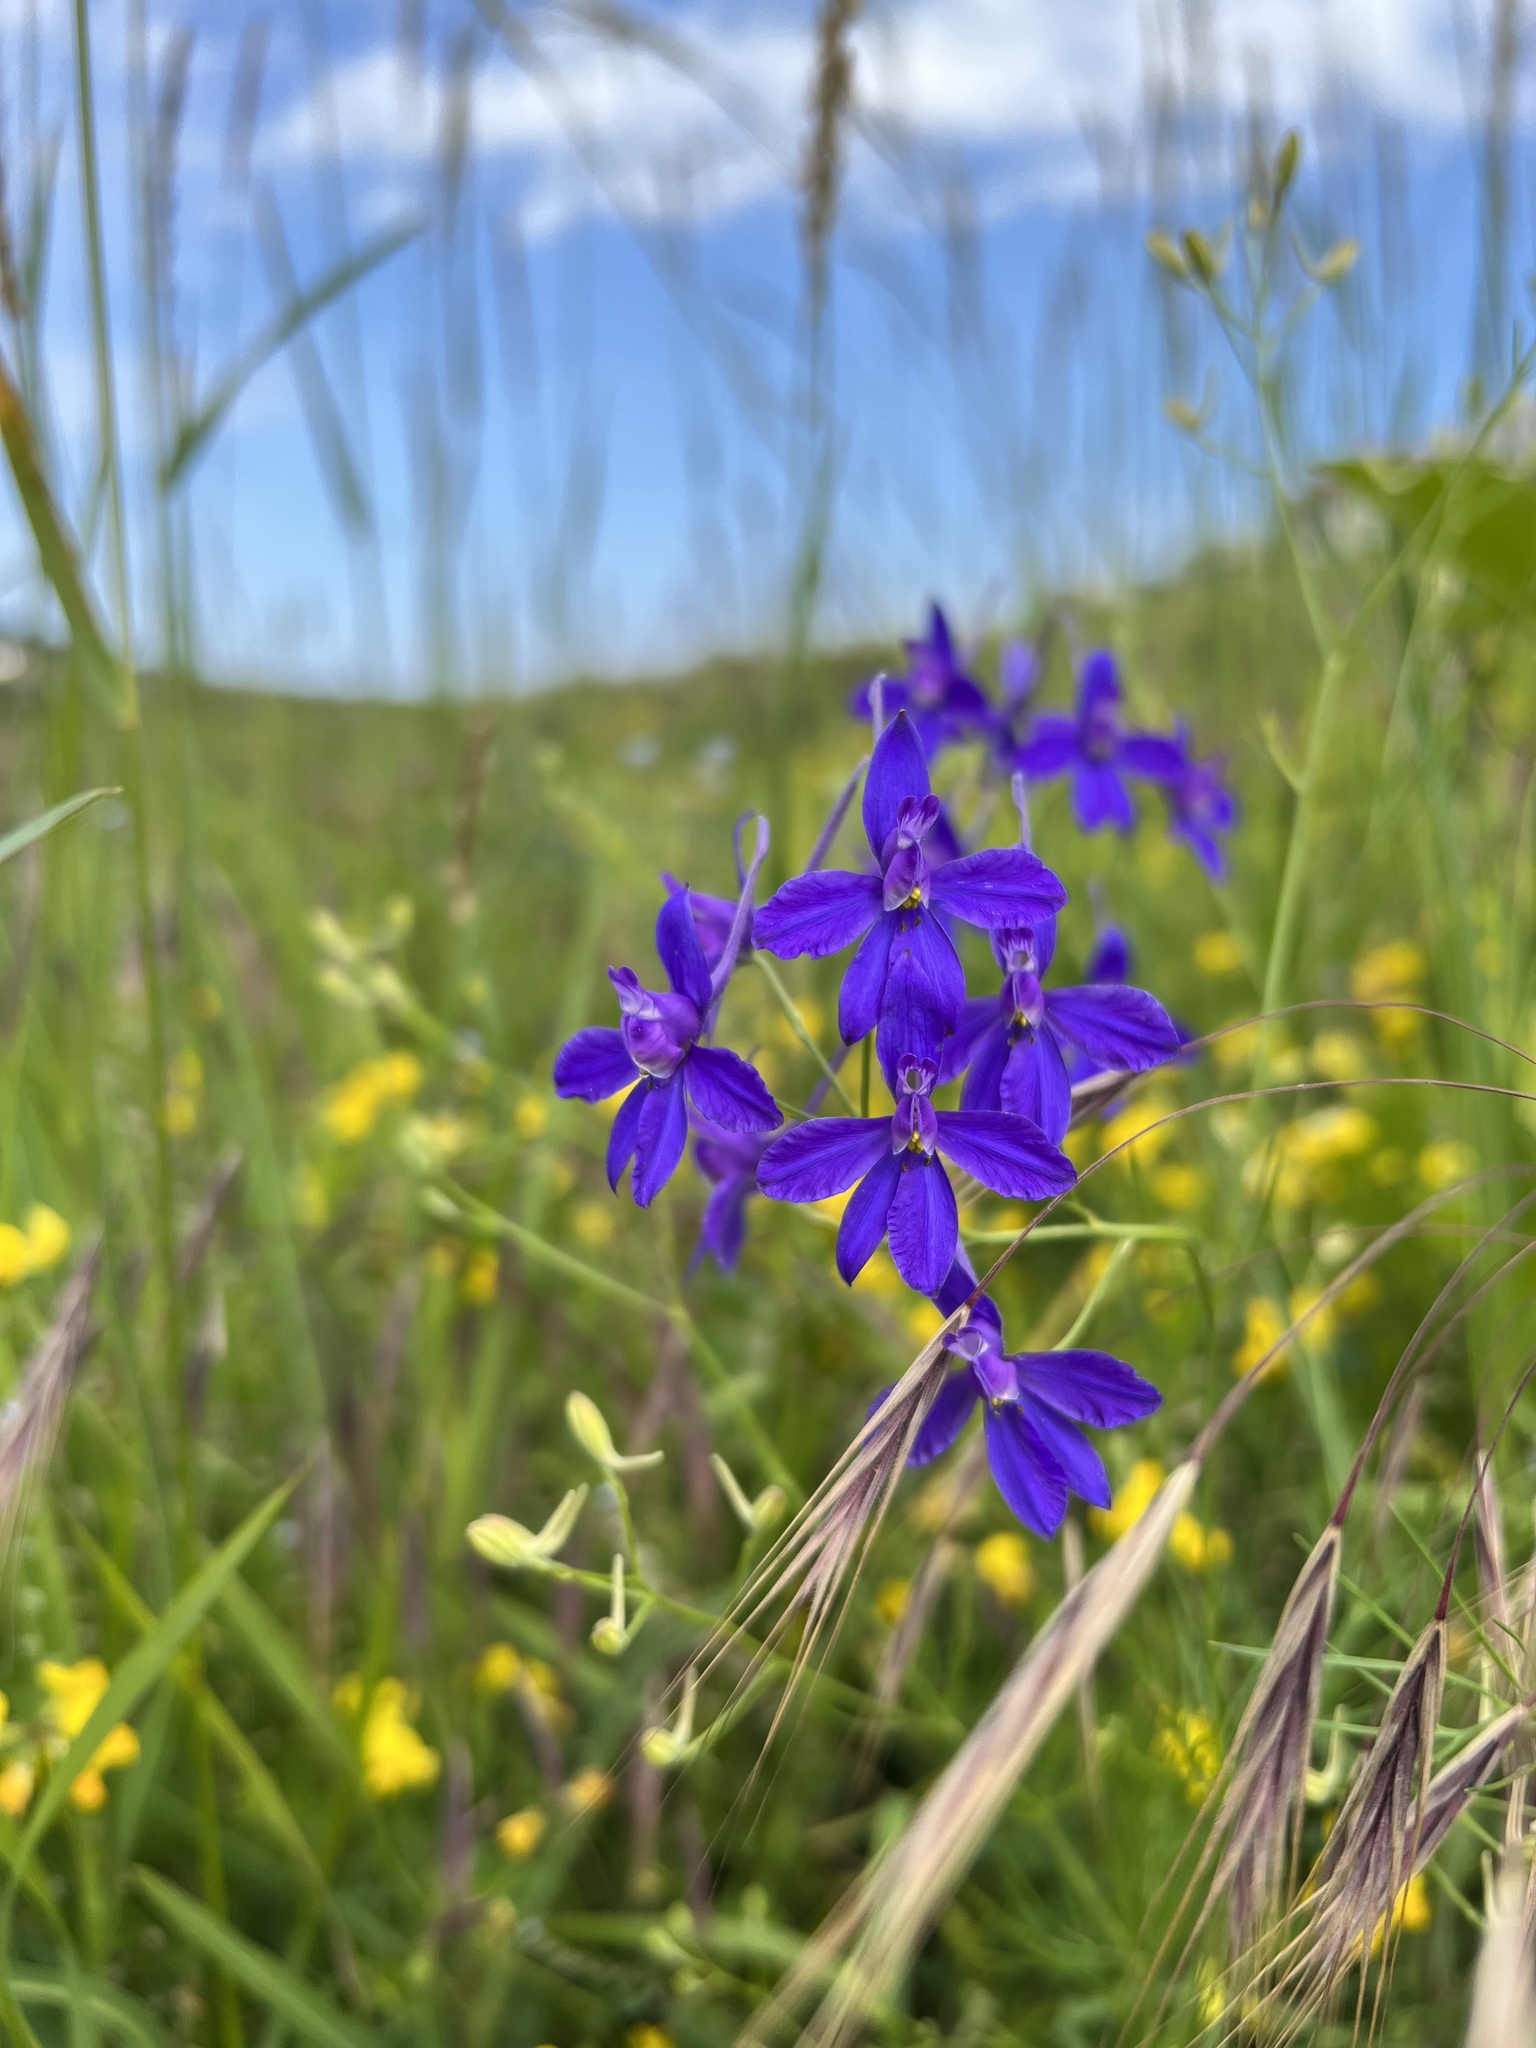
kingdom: Plantae
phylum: Tracheophyta
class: Magnoliopsida
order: Ranunculales
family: Ranunculaceae
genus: Delphinium
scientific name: Delphinium consolida
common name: Branching larkspur
